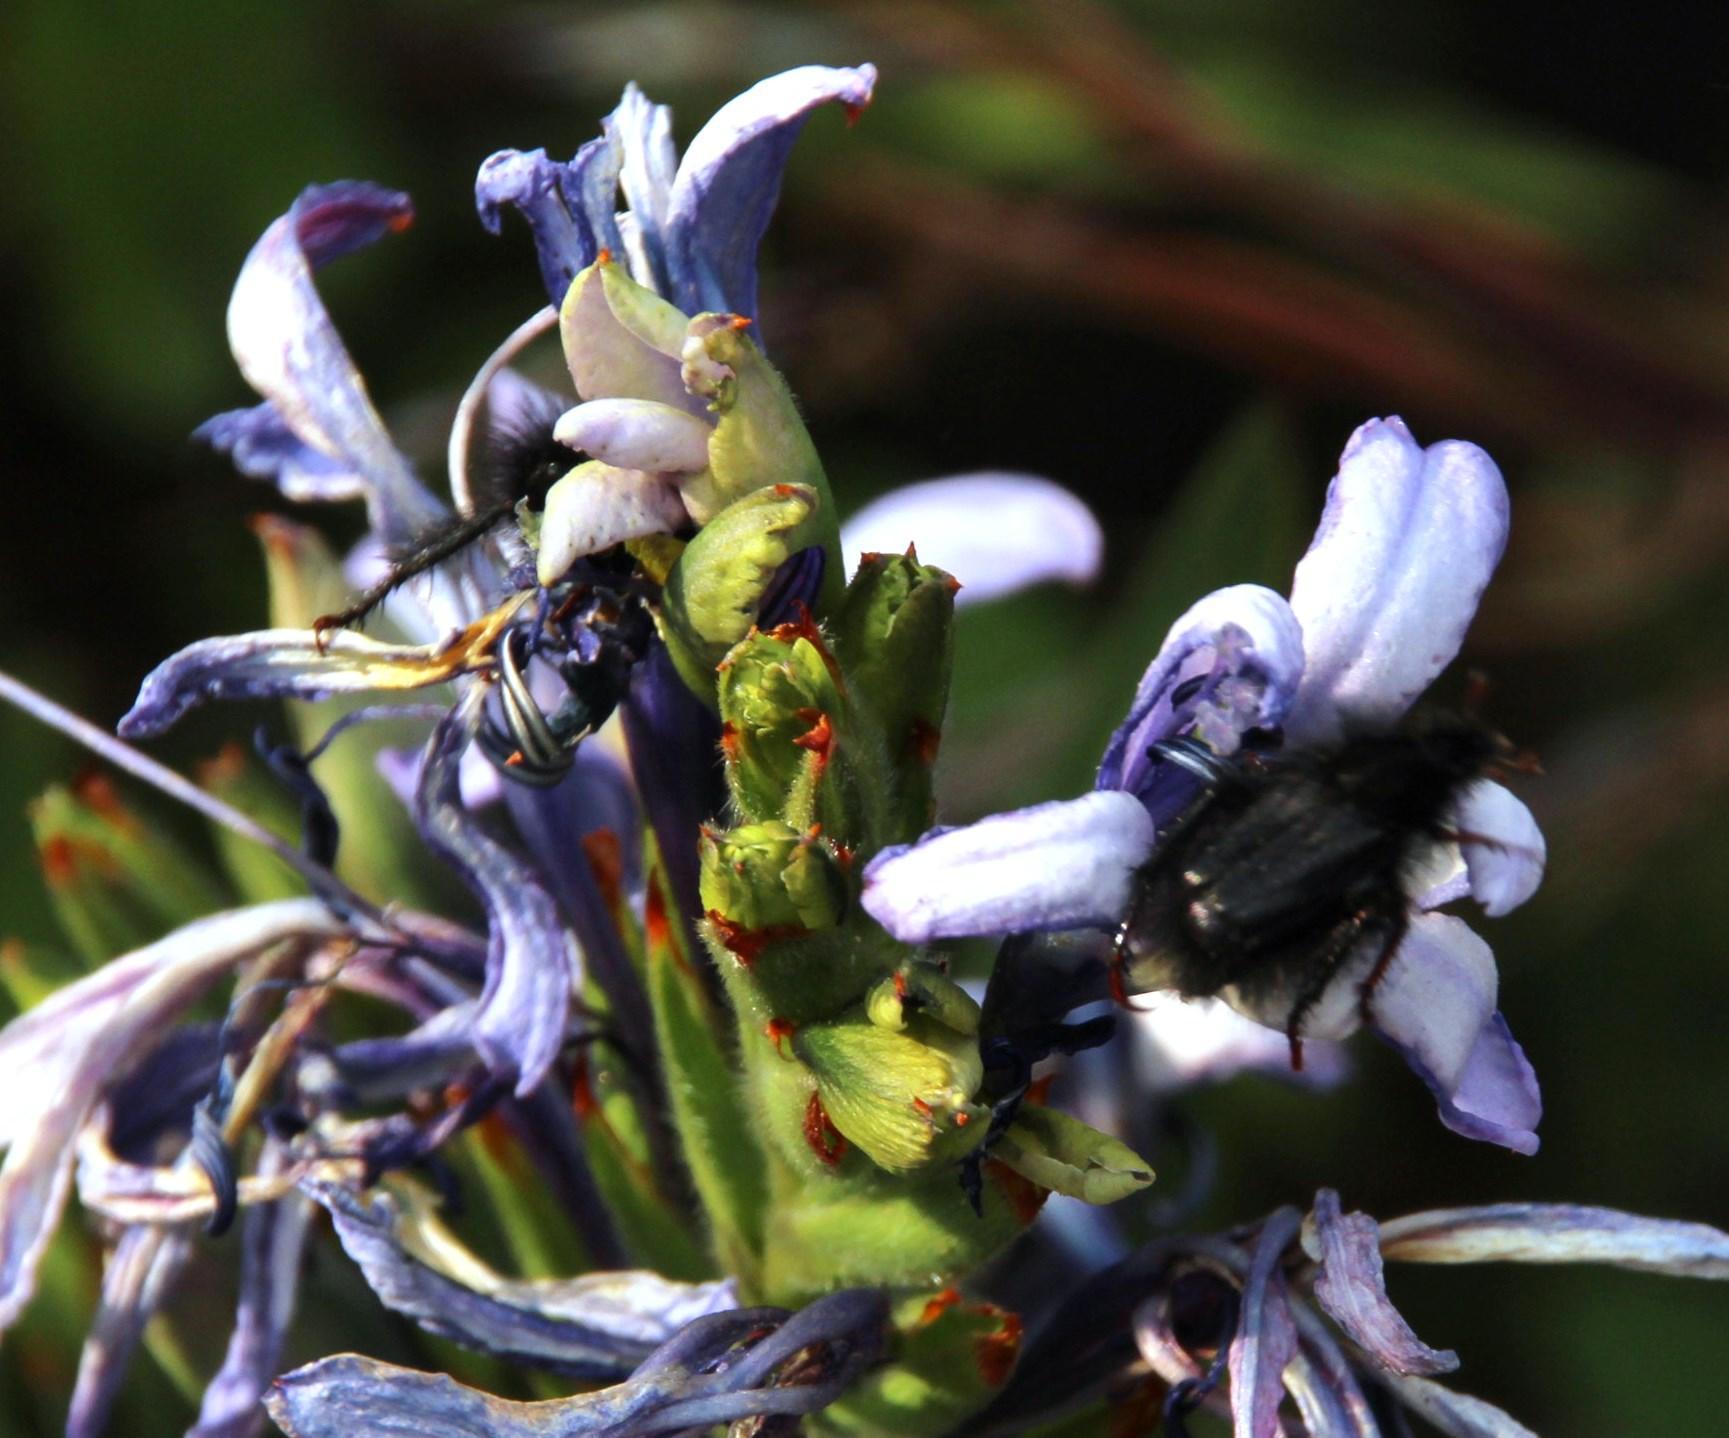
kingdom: Plantae
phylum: Tracheophyta
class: Liliopsida
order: Asparagales
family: Iridaceae
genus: Babiana
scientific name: Babiana fragrans
